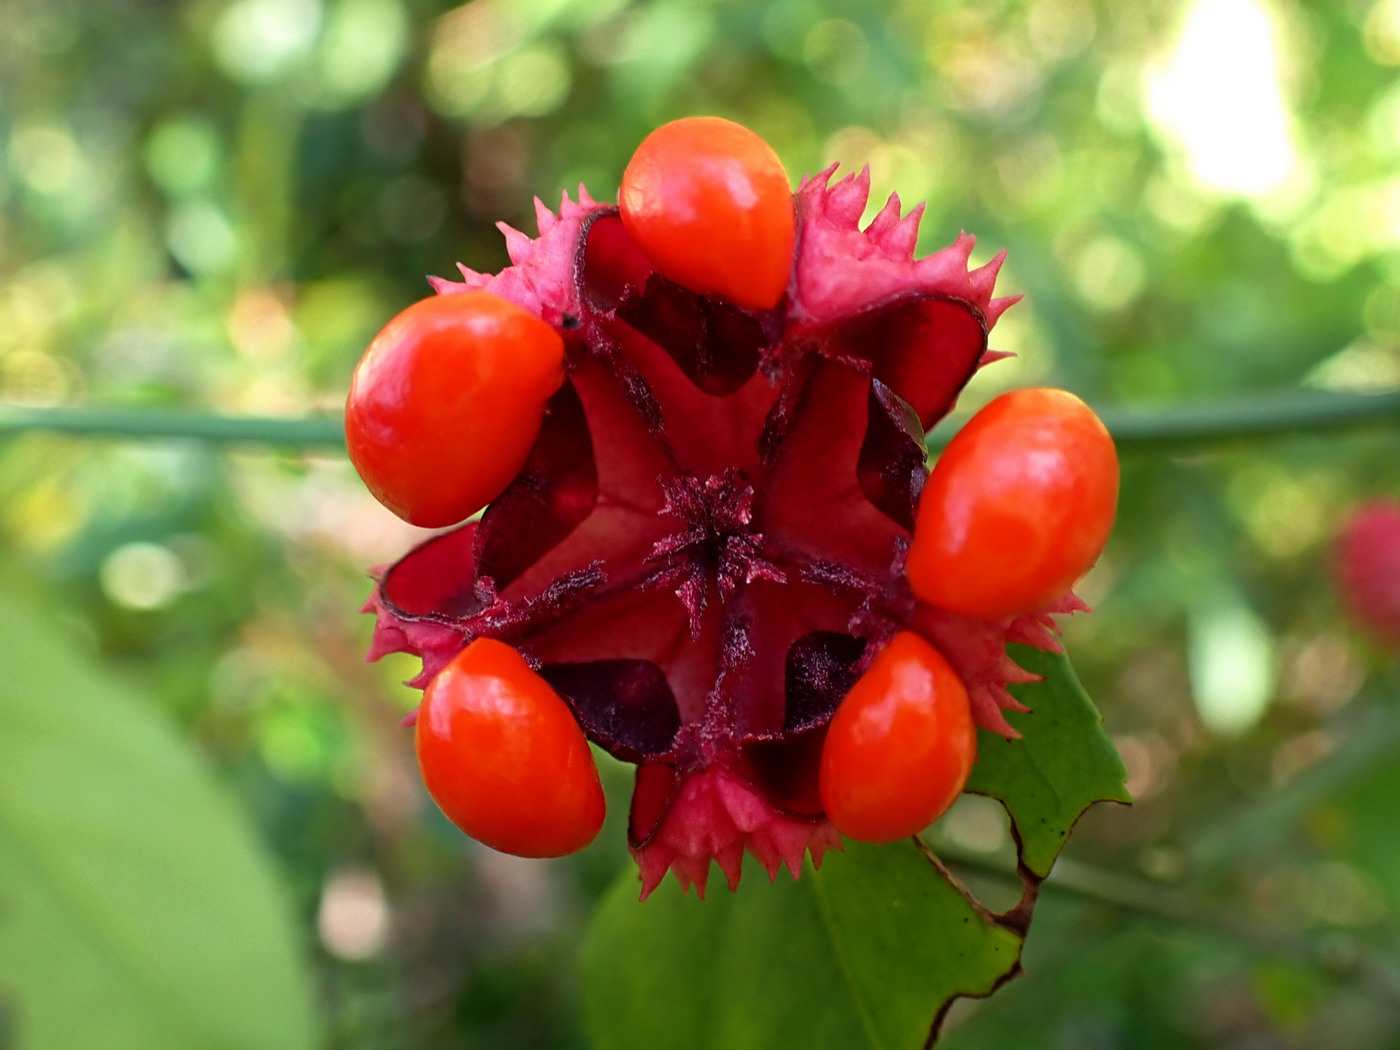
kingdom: Plantae
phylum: Tracheophyta
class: Magnoliopsida
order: Celastrales
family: Celastraceae
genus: Euonymus
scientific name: Euonymus americanus
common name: Bursting-heart
